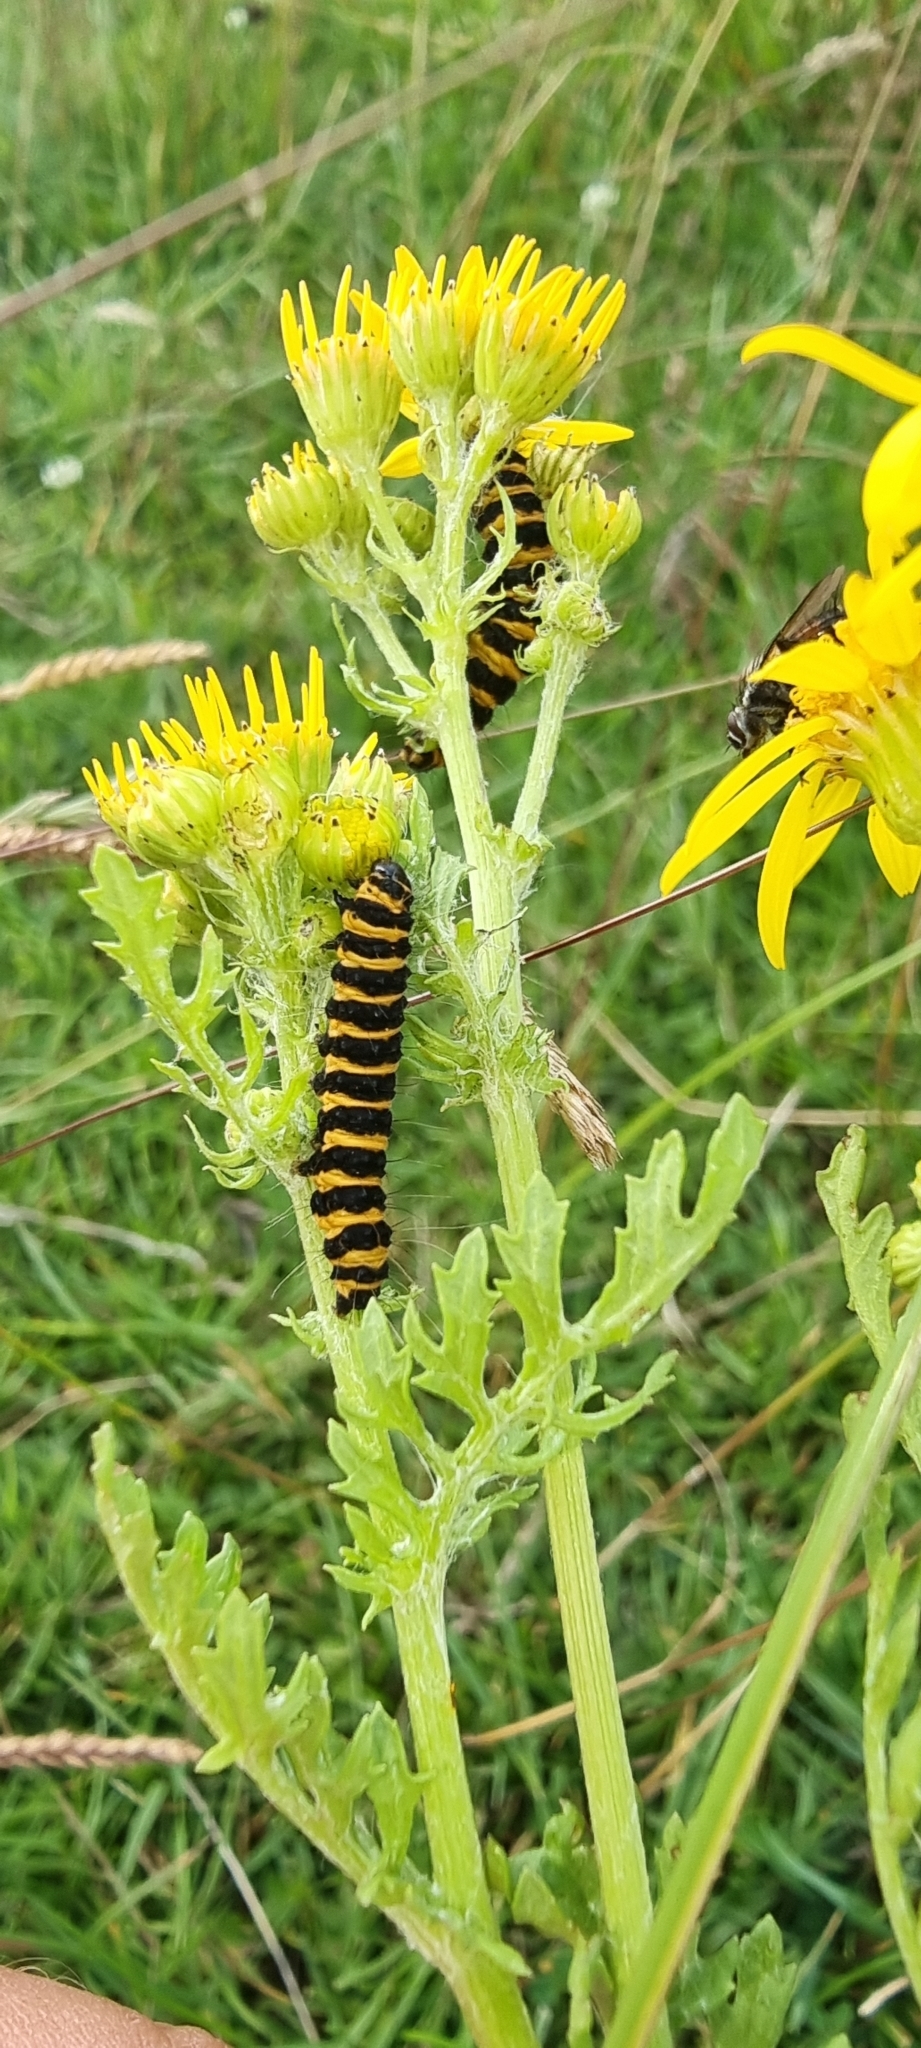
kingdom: Animalia
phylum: Arthropoda
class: Insecta
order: Lepidoptera
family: Erebidae
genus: Tyria
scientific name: Tyria jacobaeae
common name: Cinnabar
